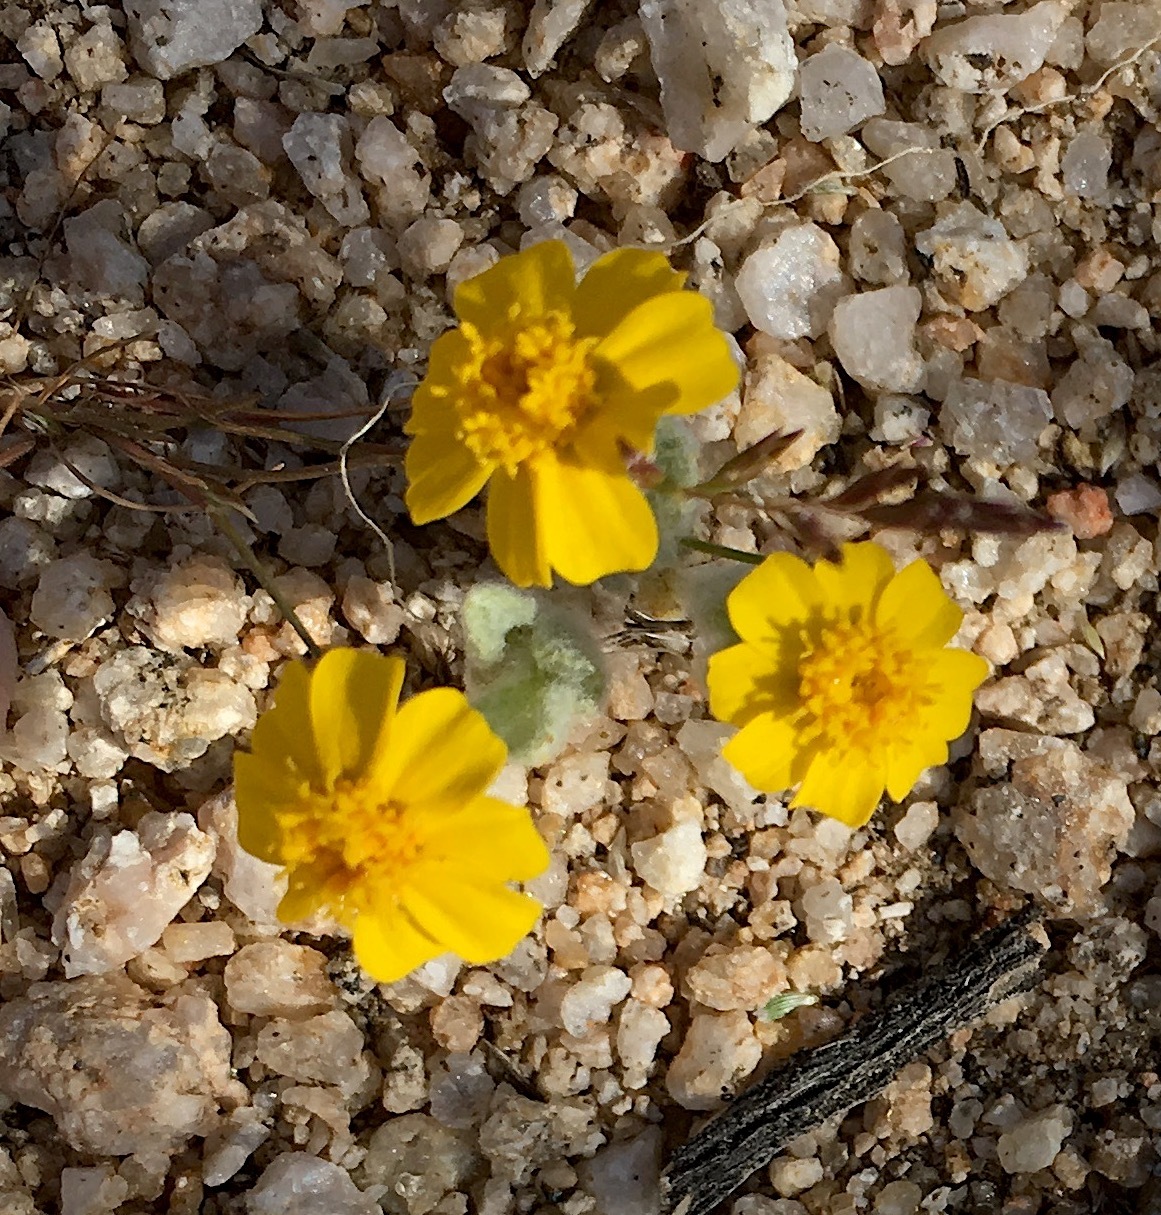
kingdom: Plantae
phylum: Tracheophyta
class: Magnoliopsida
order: Asterales
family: Asteraceae
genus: Eriophyllum
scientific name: Eriophyllum wallacei
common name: Wallace's woolly daisy
